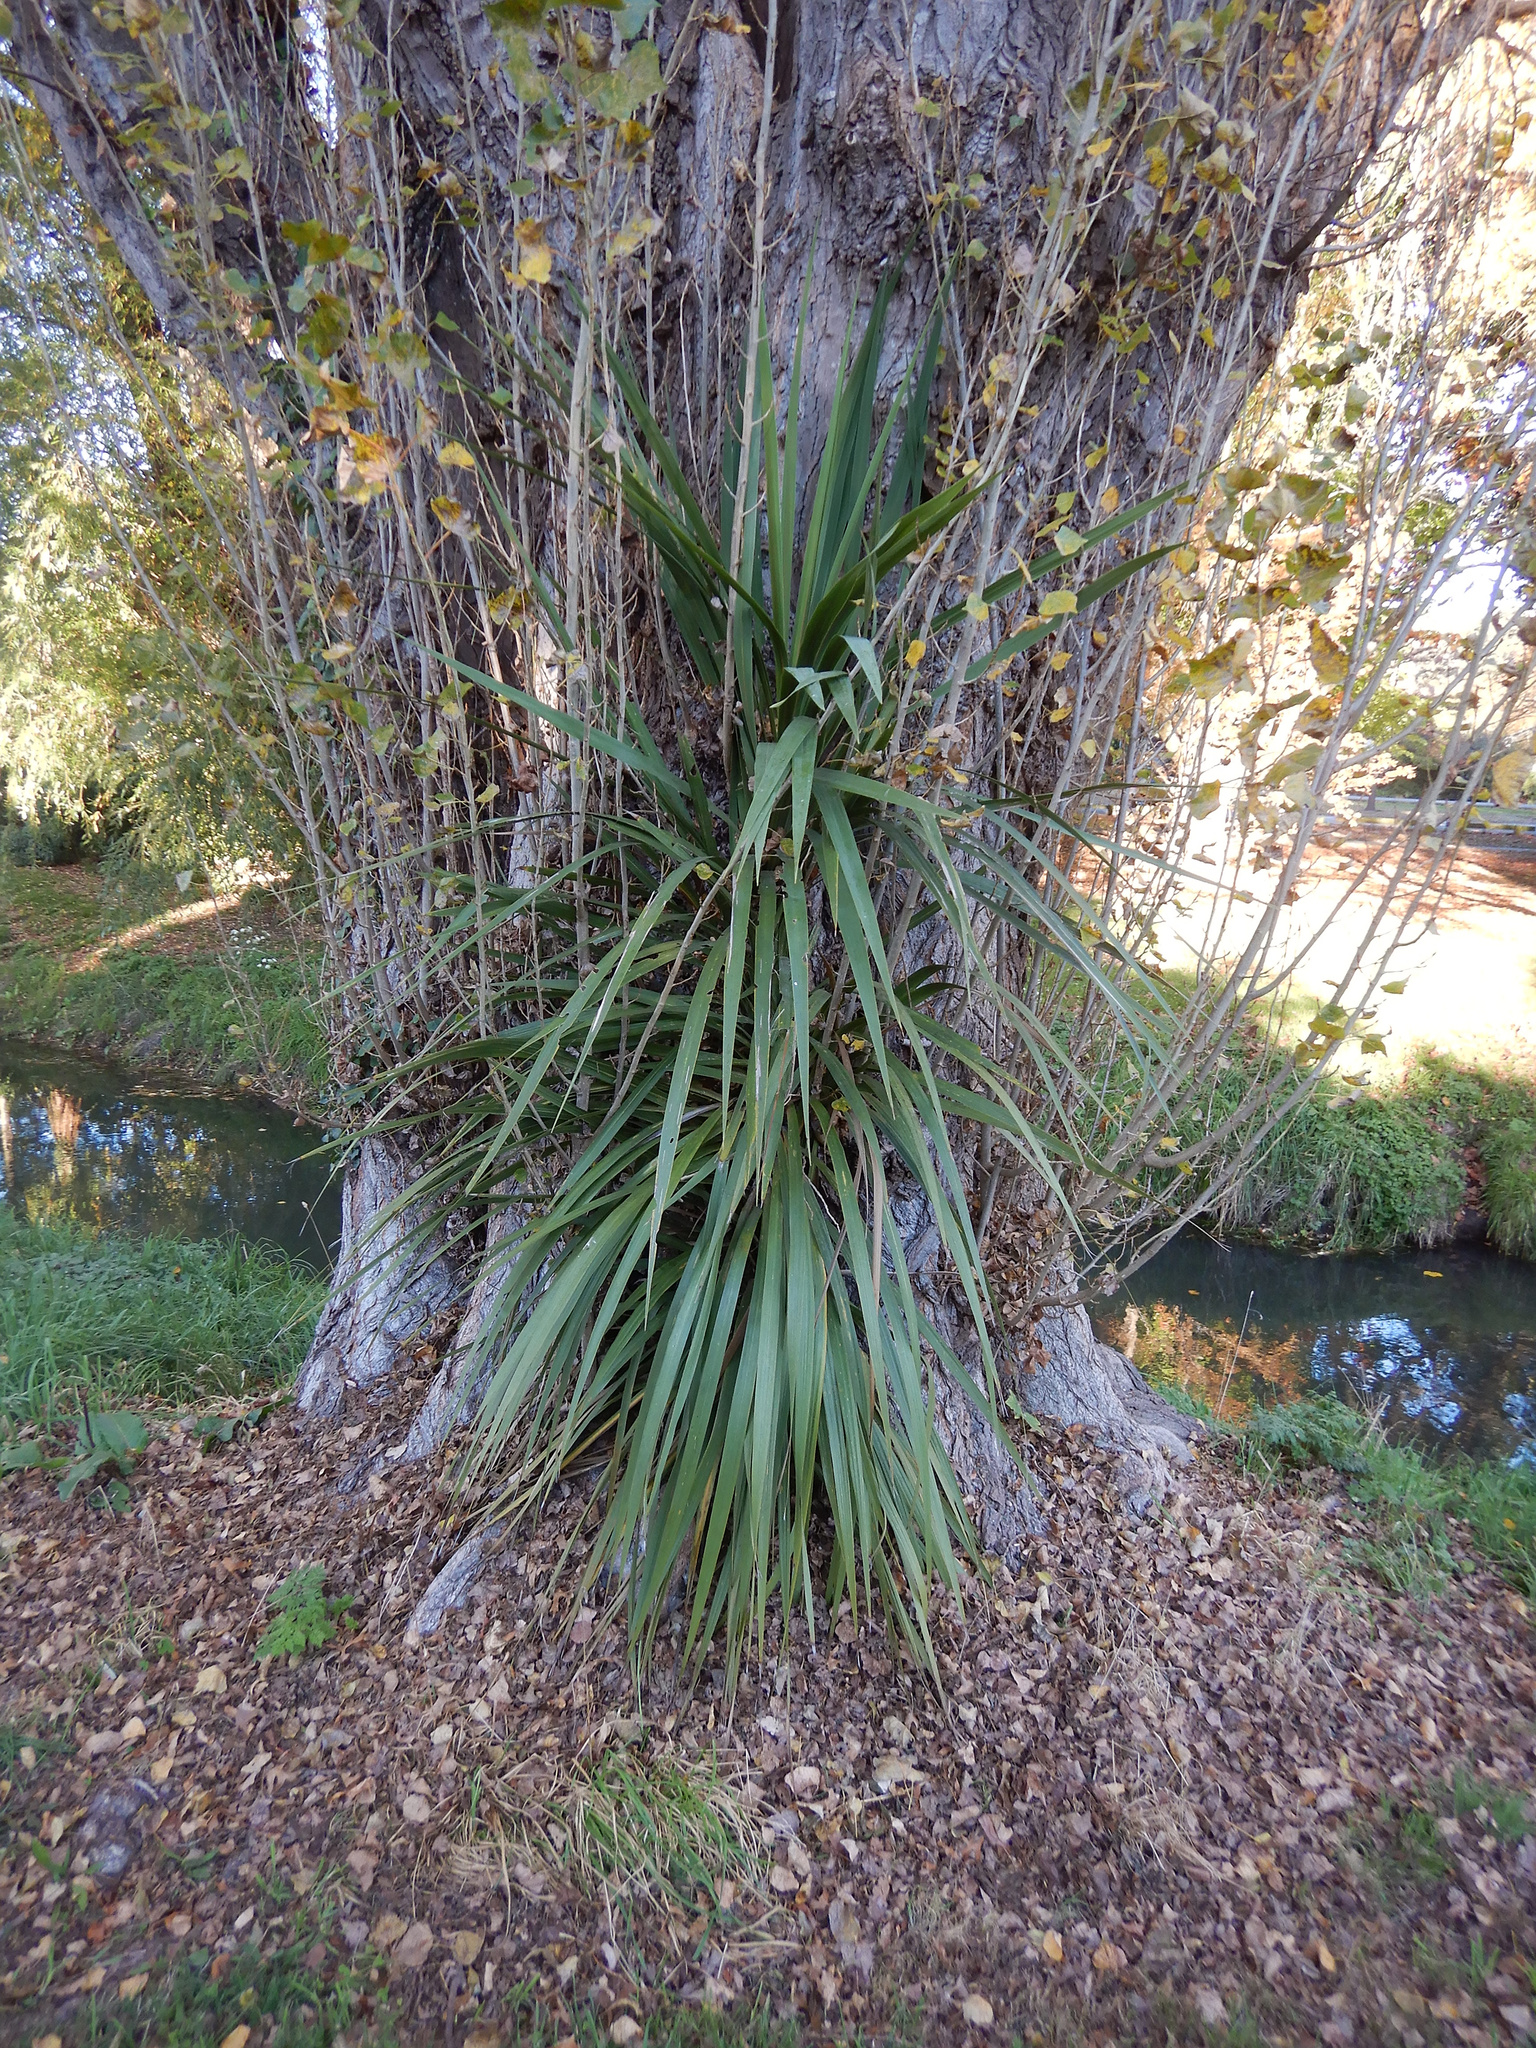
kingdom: Plantae
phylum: Tracheophyta
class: Liliopsida
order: Asparagales
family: Asparagaceae
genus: Cordyline
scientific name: Cordyline australis
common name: Cabbage-palm
